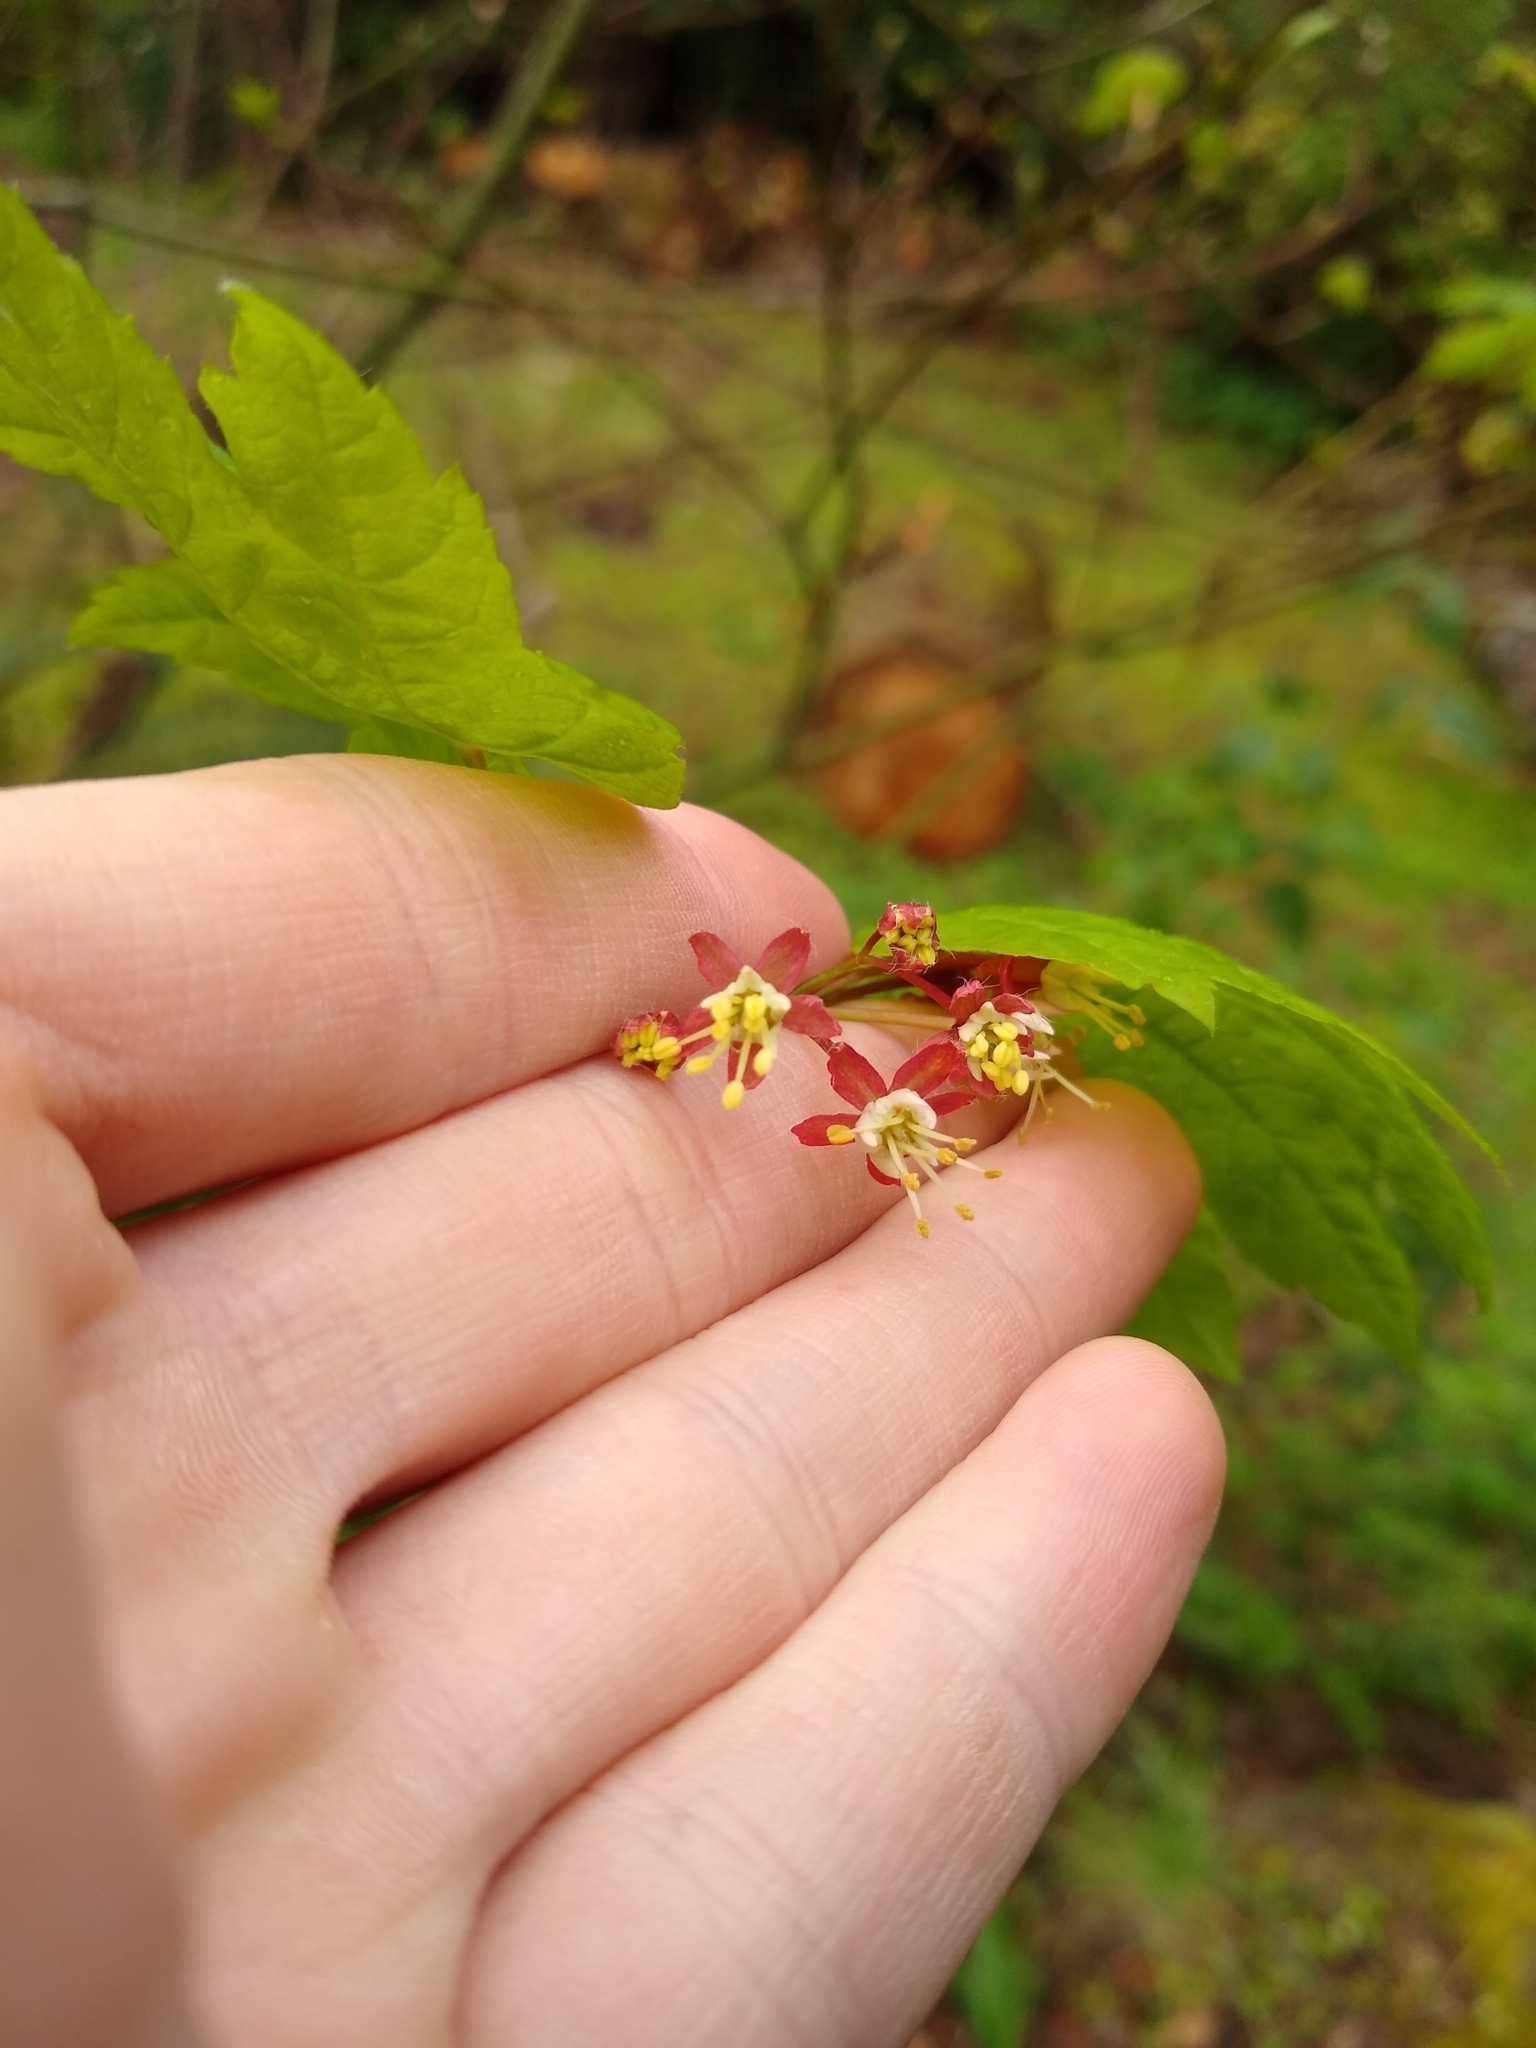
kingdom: Plantae
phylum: Tracheophyta
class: Magnoliopsida
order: Sapindales
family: Sapindaceae
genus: Acer
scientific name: Acer circinatum
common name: Vine maple
